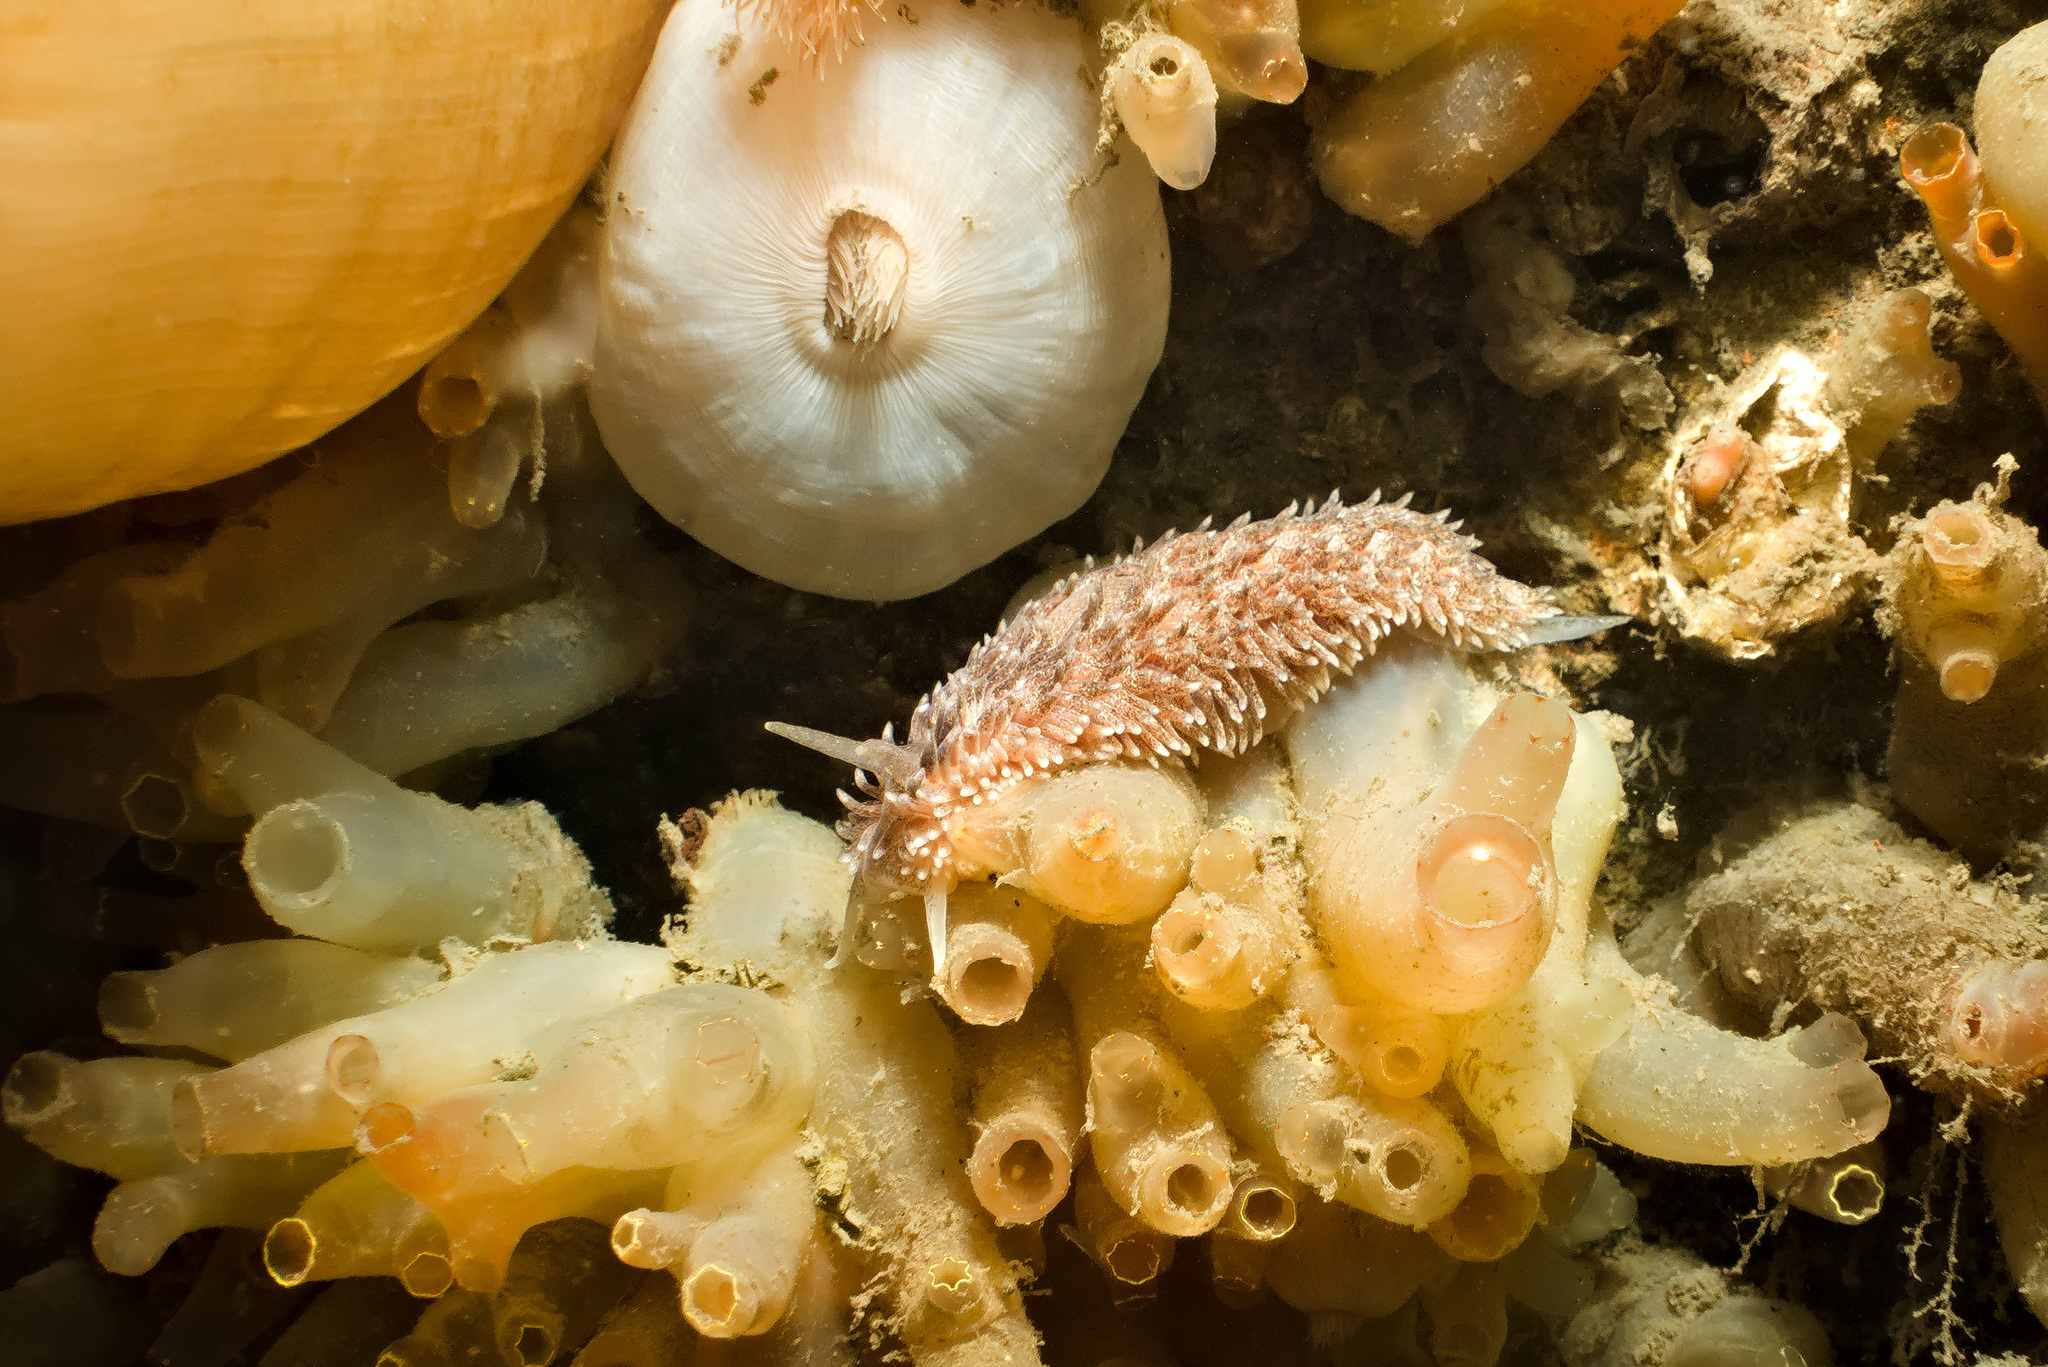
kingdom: Animalia
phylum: Mollusca
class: Gastropoda
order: Nudibranchia
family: Aeolidiidae
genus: Aeolidia
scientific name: Aeolidia papillosa
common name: Common grey sea slug
